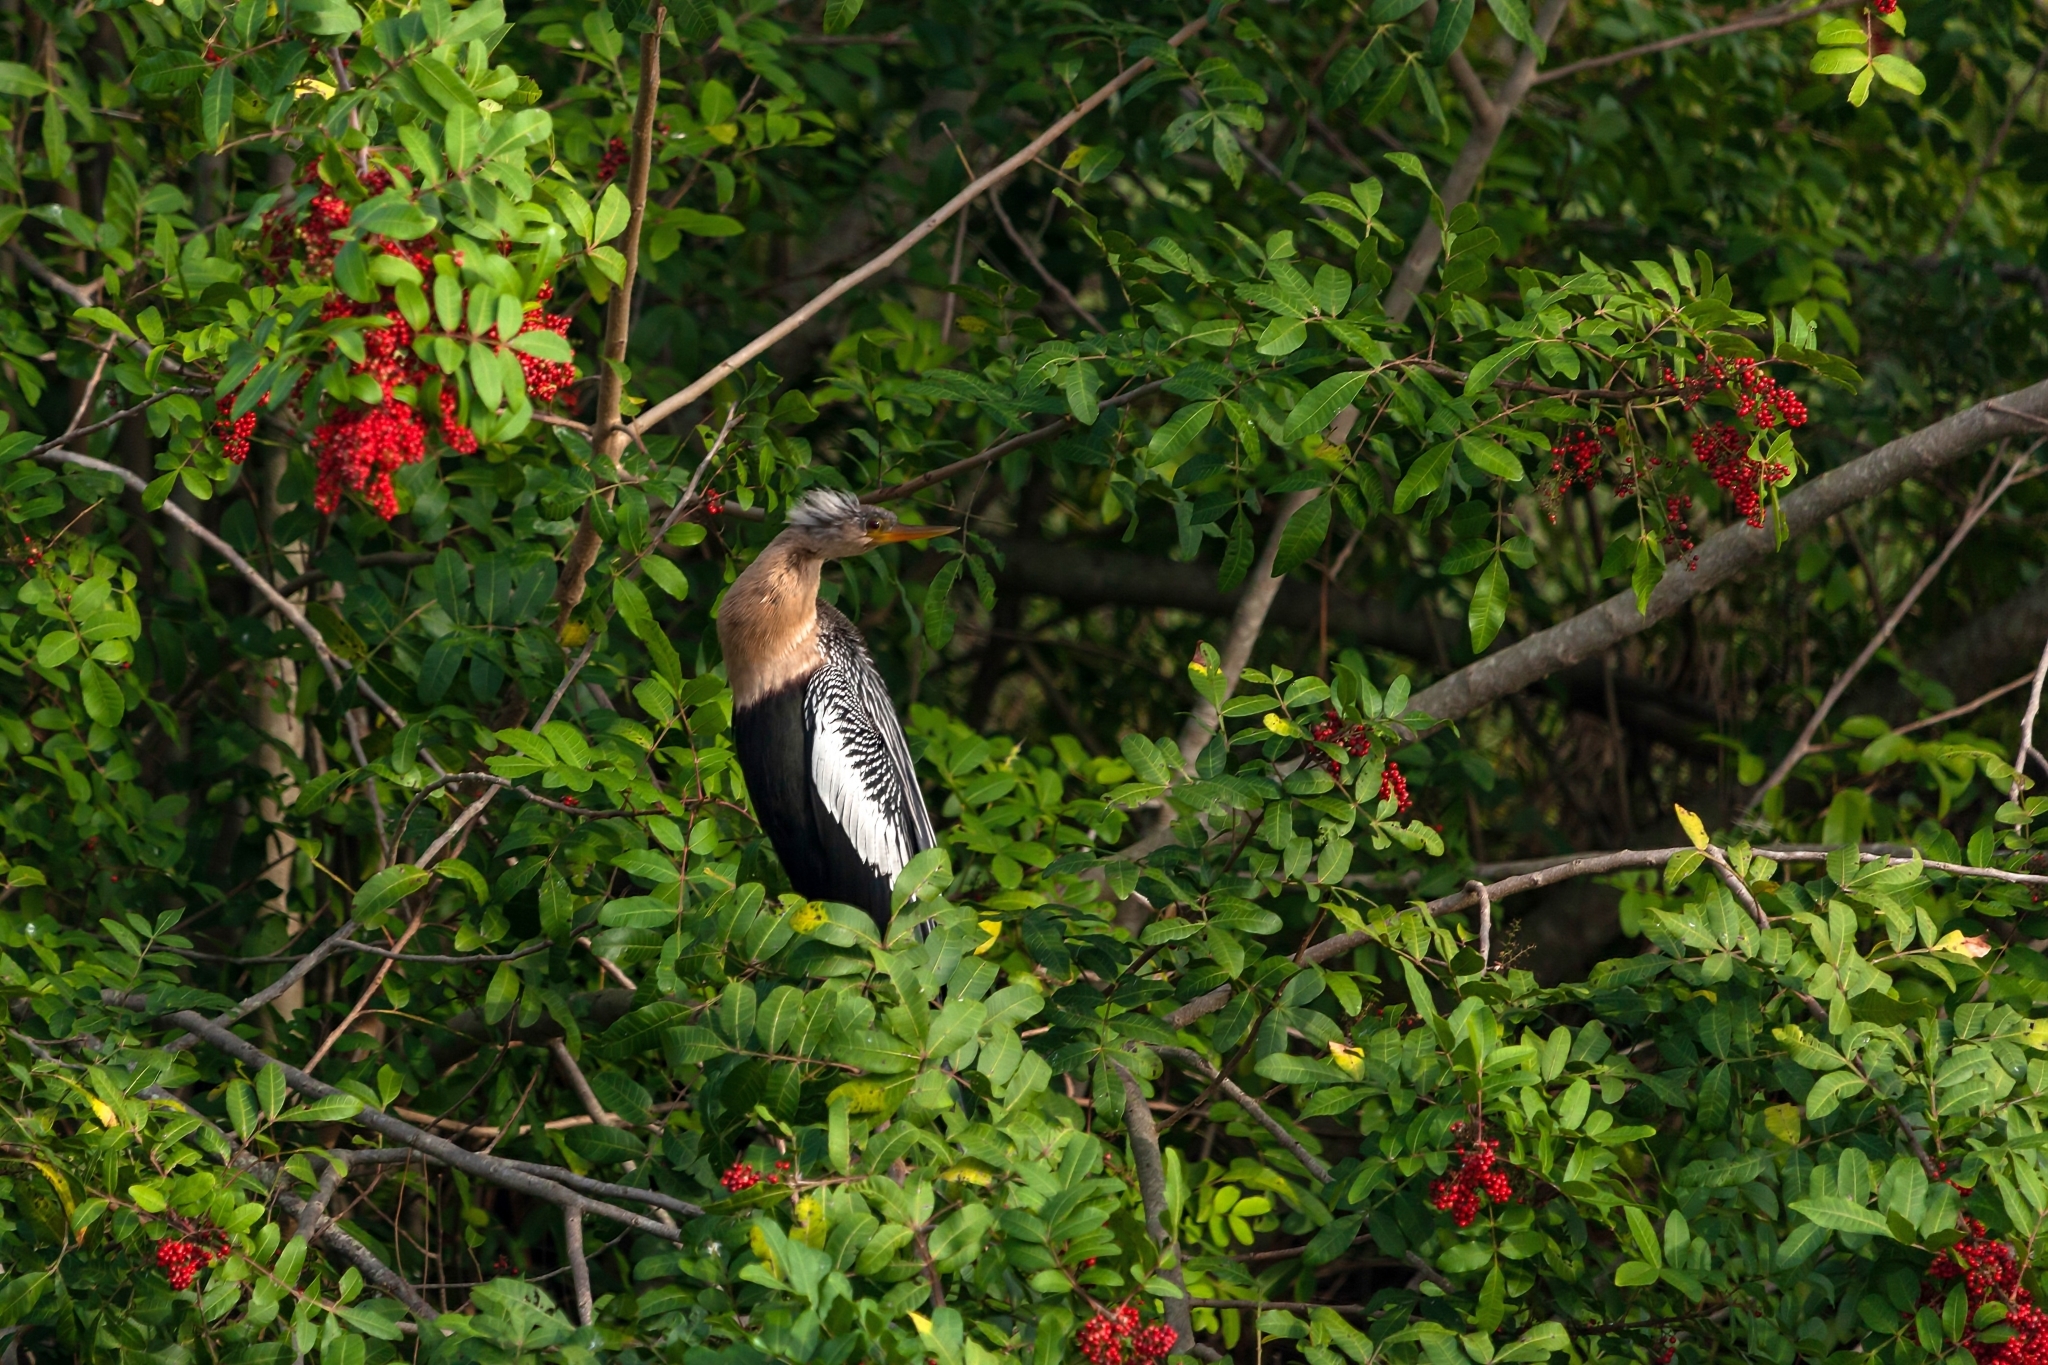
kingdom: Animalia
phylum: Chordata
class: Aves
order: Suliformes
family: Anhingidae
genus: Anhinga
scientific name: Anhinga anhinga
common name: Anhinga
